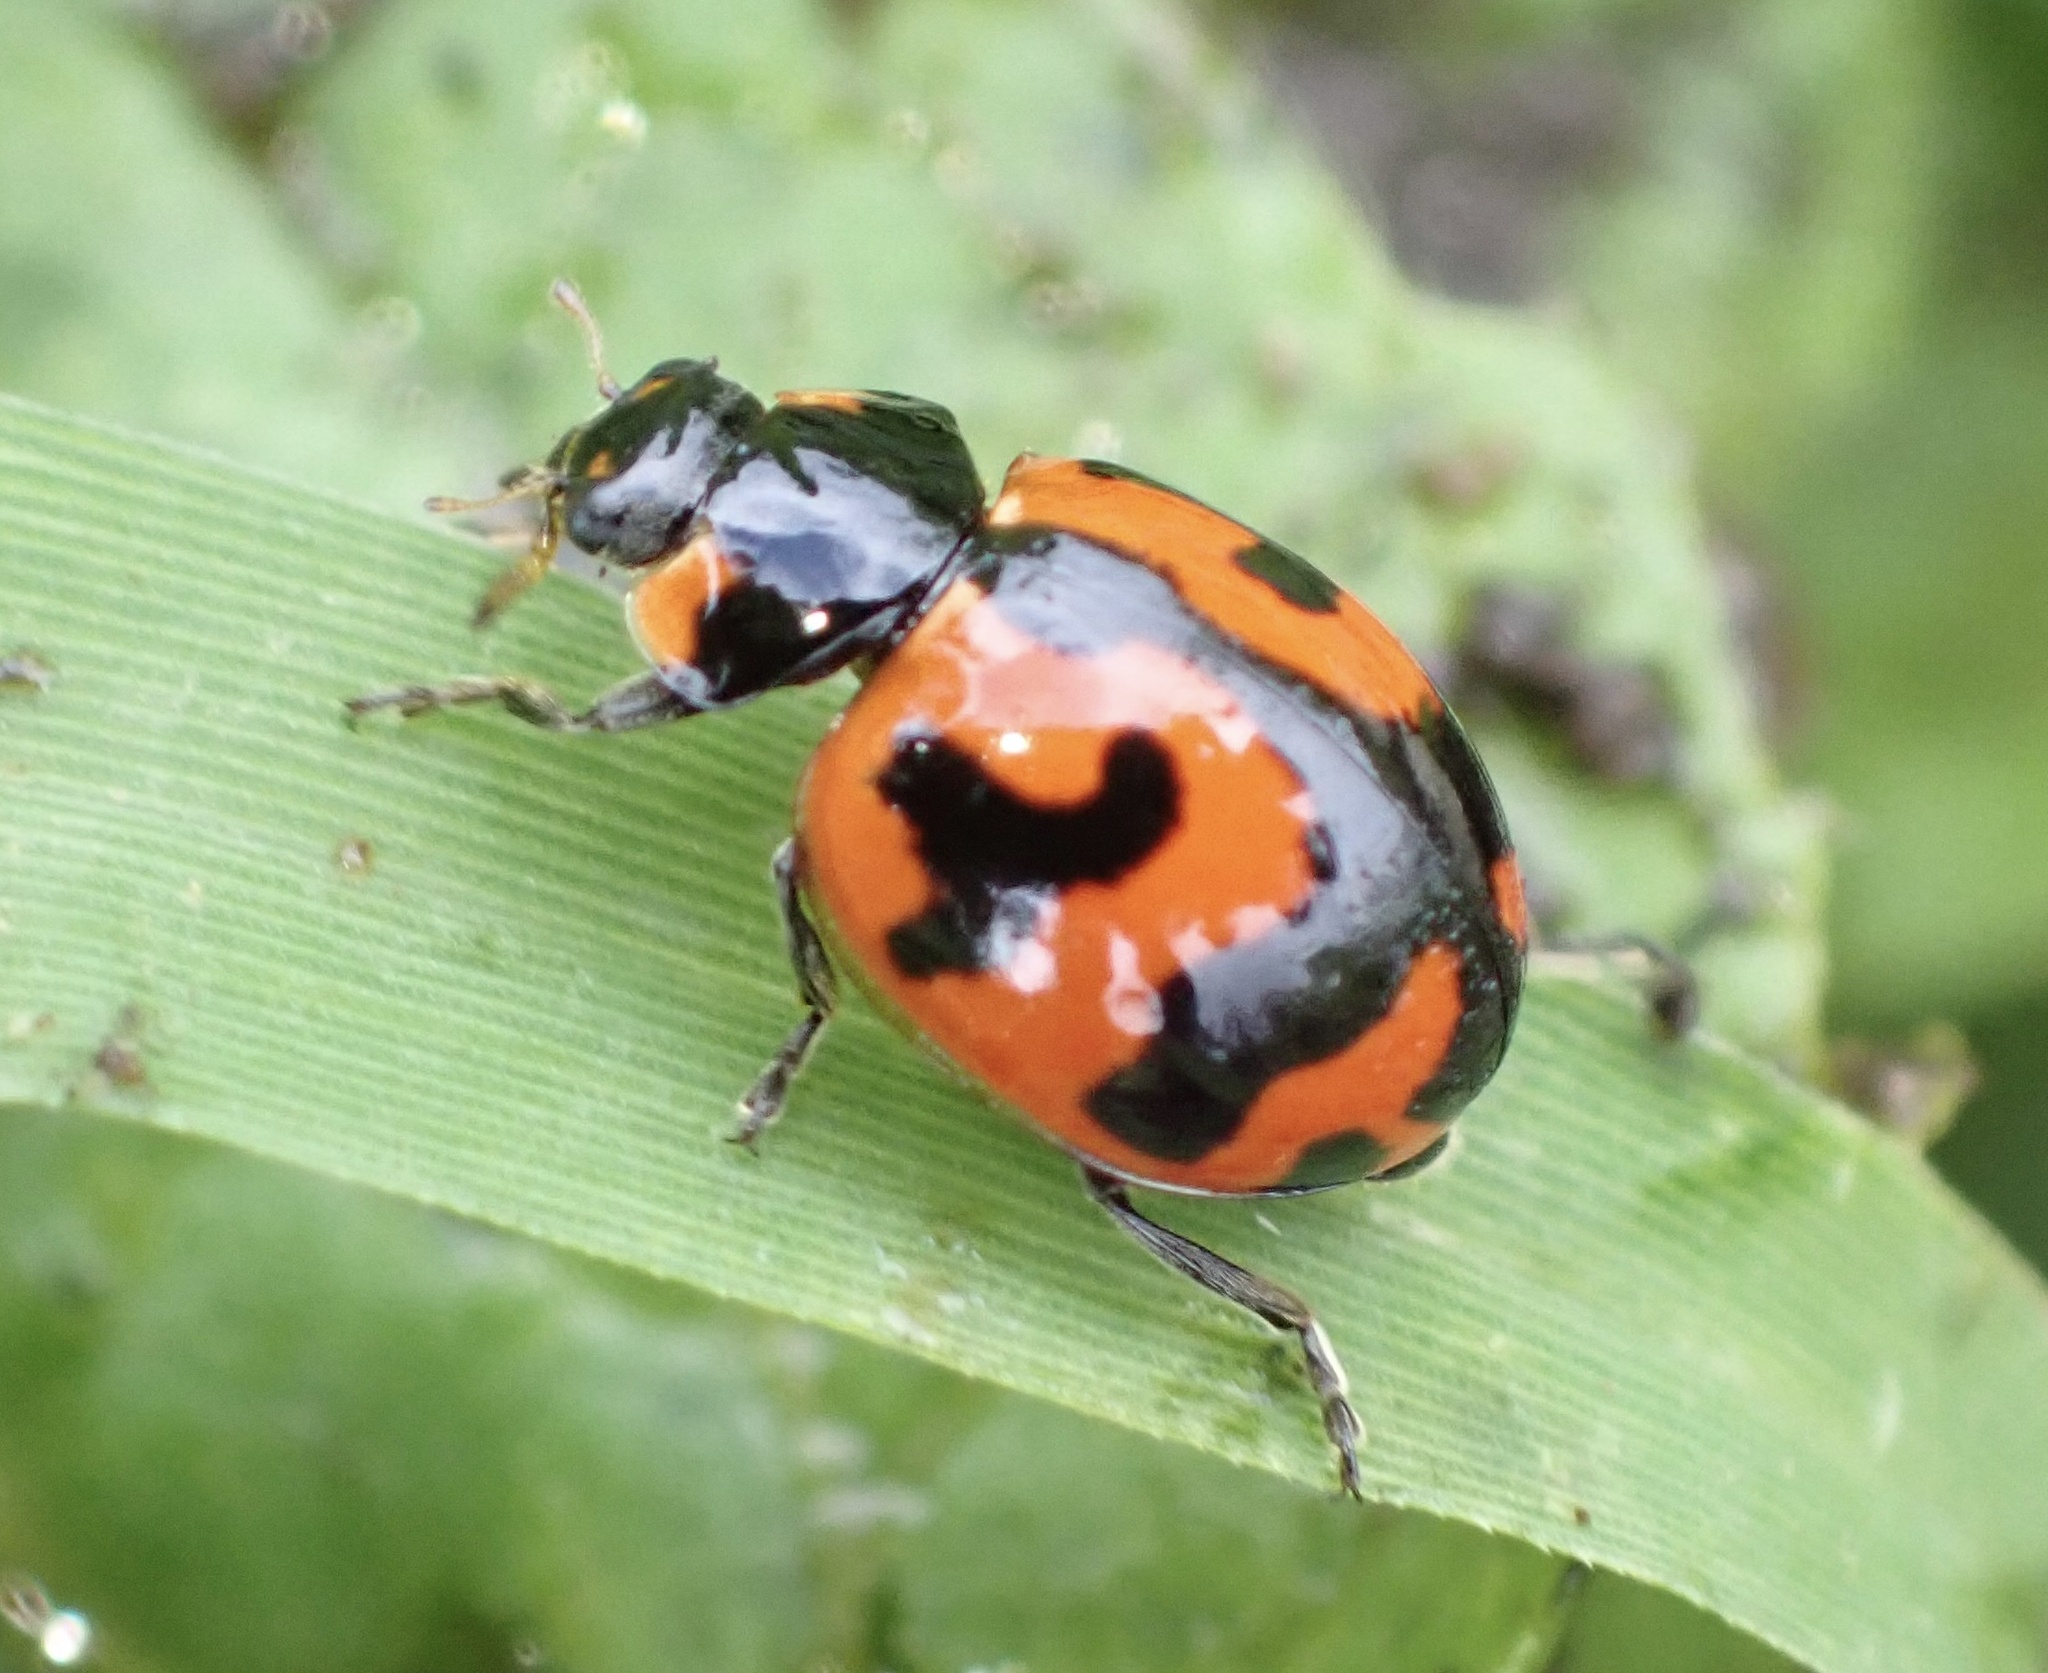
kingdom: Animalia
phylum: Arthropoda
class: Insecta
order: Coleoptera
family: Coccinellidae
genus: Coccinella
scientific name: Coccinella transversalis
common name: Transverse lady beetle
